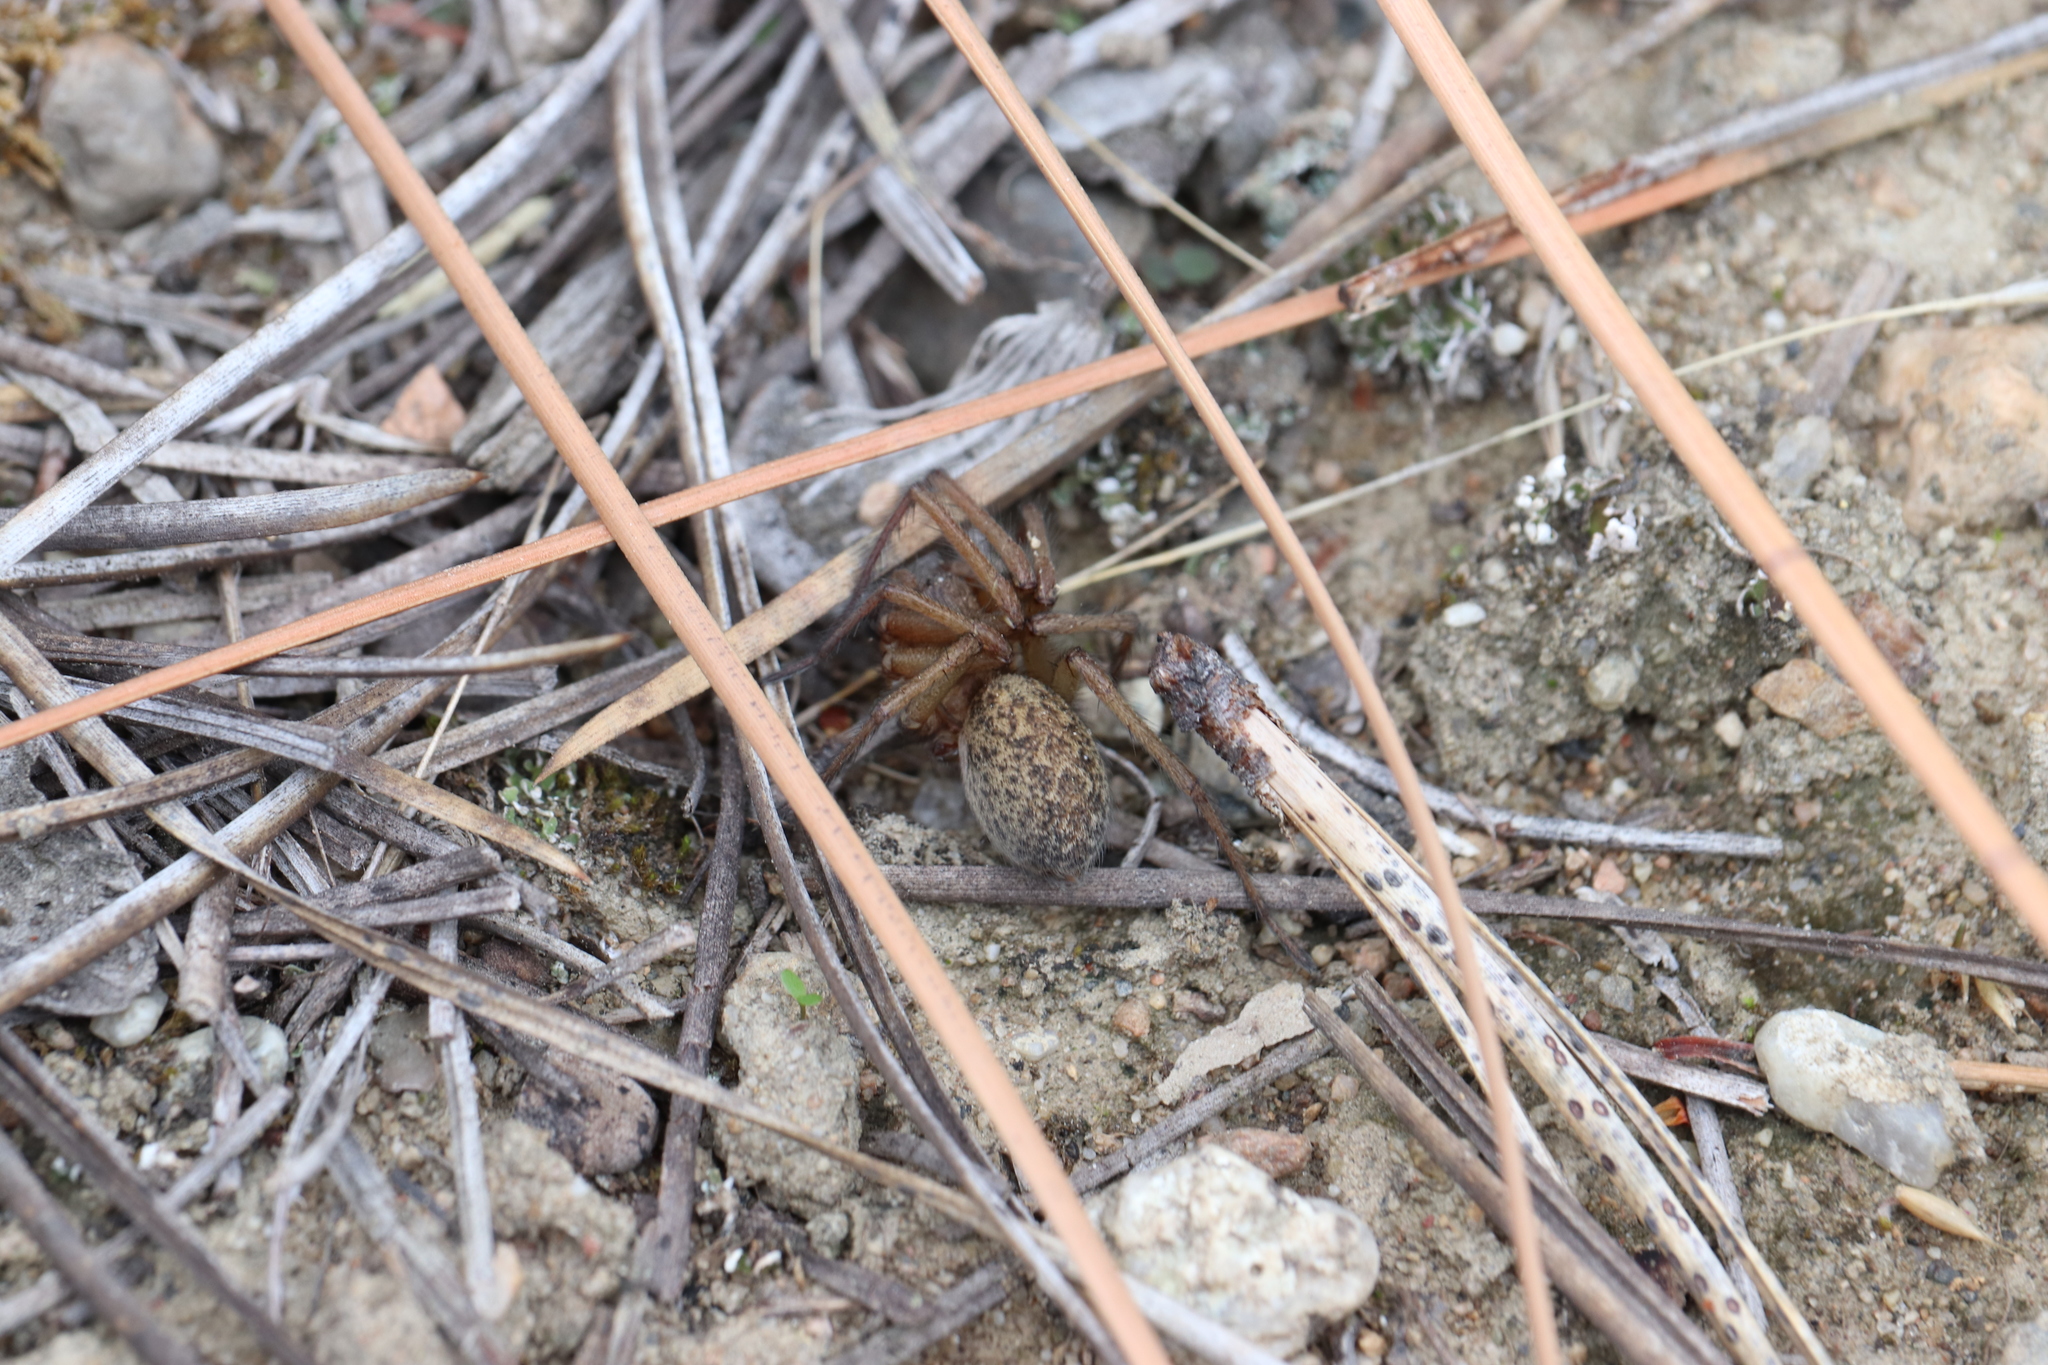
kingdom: Animalia
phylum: Arthropoda
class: Arachnida
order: Araneae
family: Agelenidae
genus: Eratigena
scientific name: Eratigena agrestis
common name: Hobo spider
